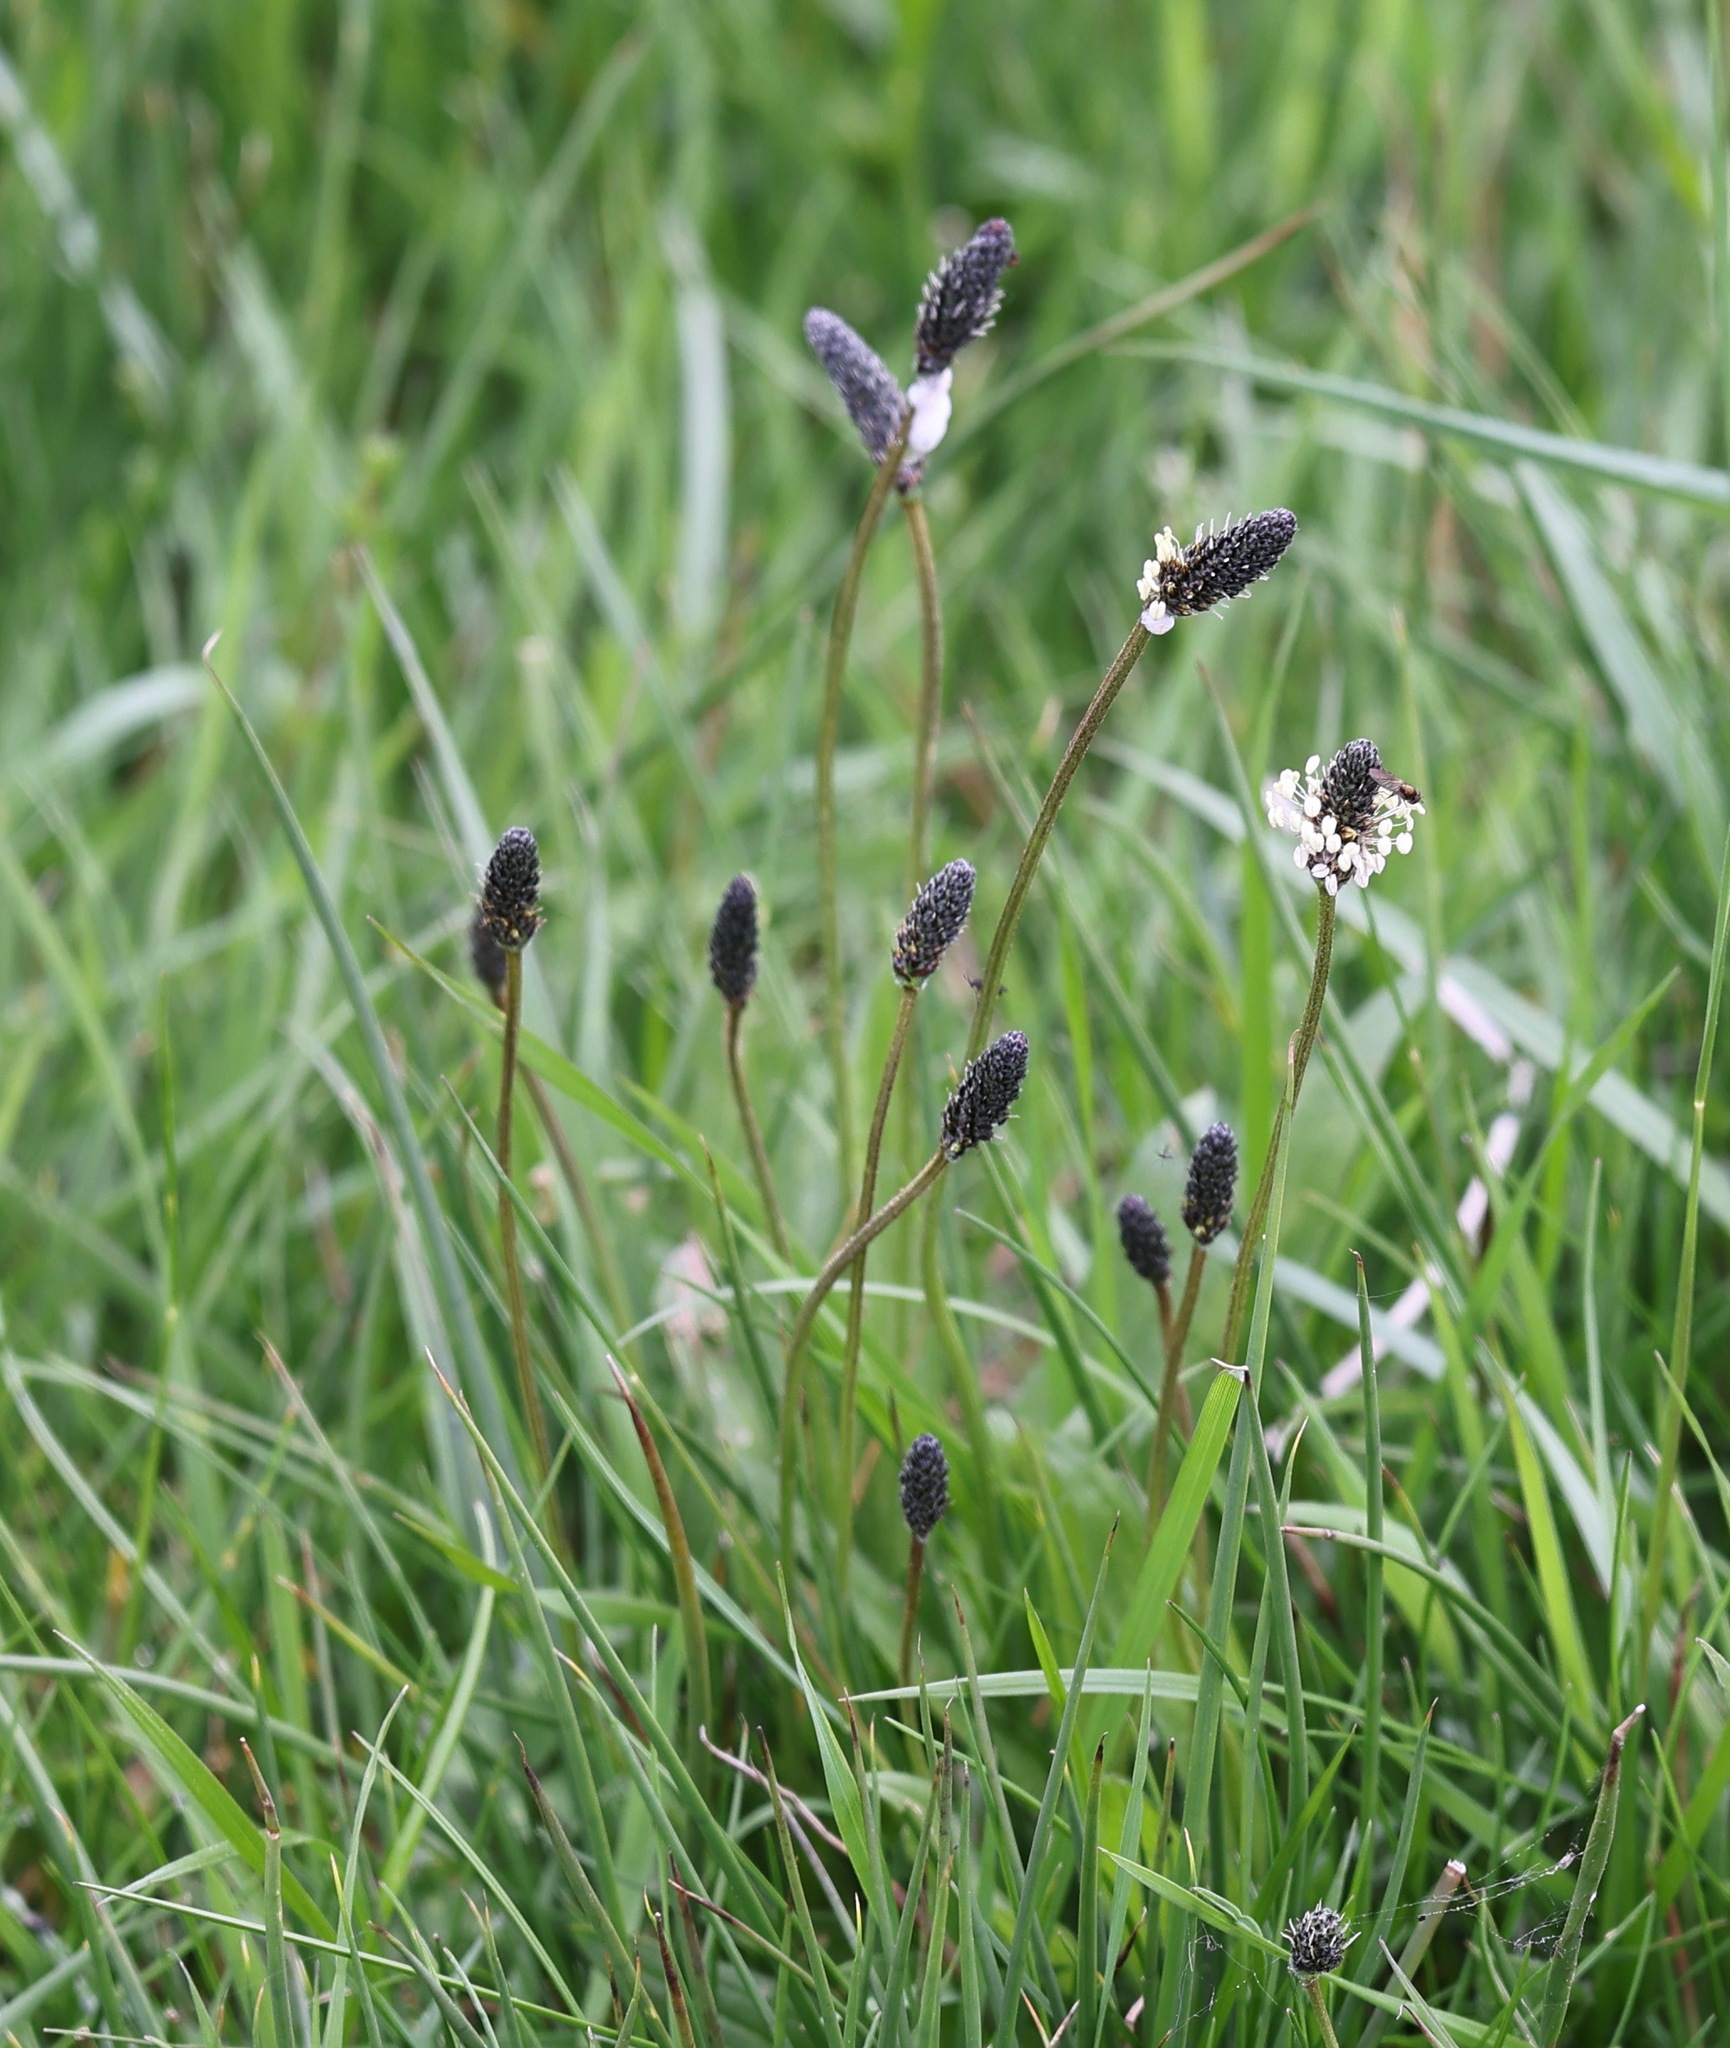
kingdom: Plantae
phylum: Tracheophyta
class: Magnoliopsida
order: Lamiales
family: Plantaginaceae
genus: Plantago
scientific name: Plantago lanceolata
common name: Ribwort plantain
